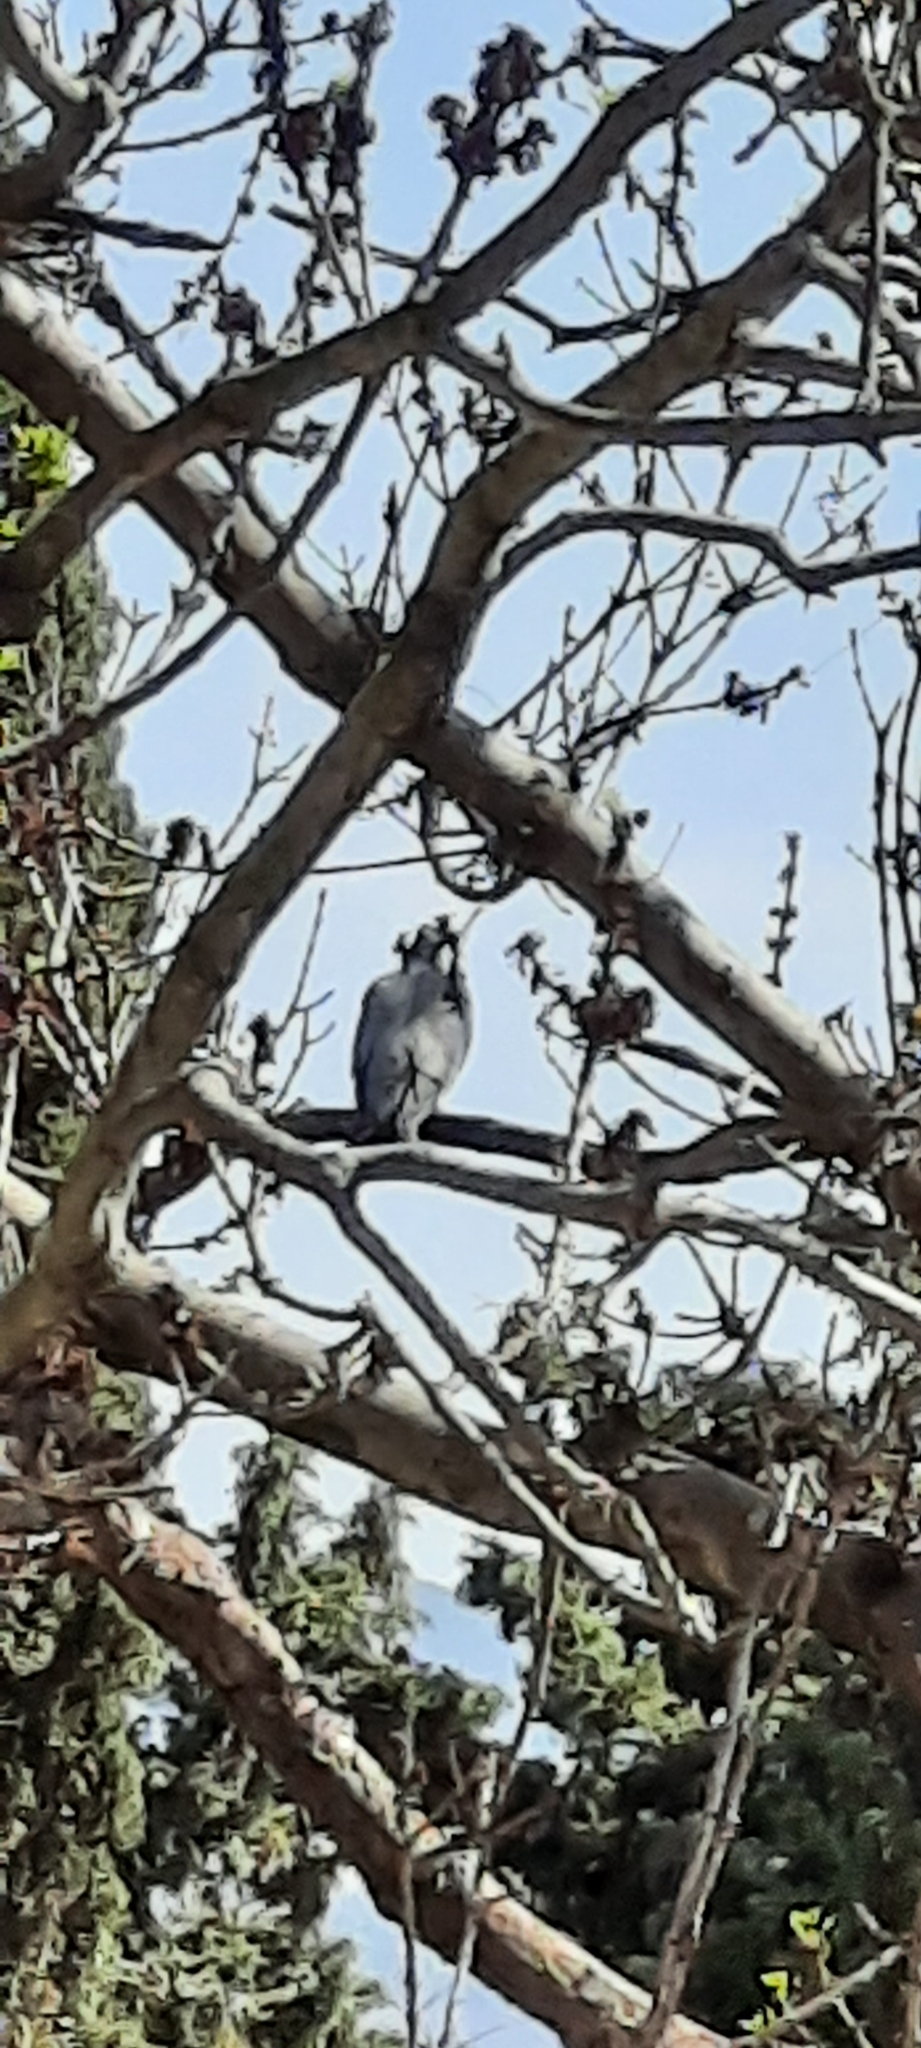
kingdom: Animalia
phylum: Chordata
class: Aves
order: Columbiformes
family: Columbidae
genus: Columba
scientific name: Columba palumbus
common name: Common wood pigeon
